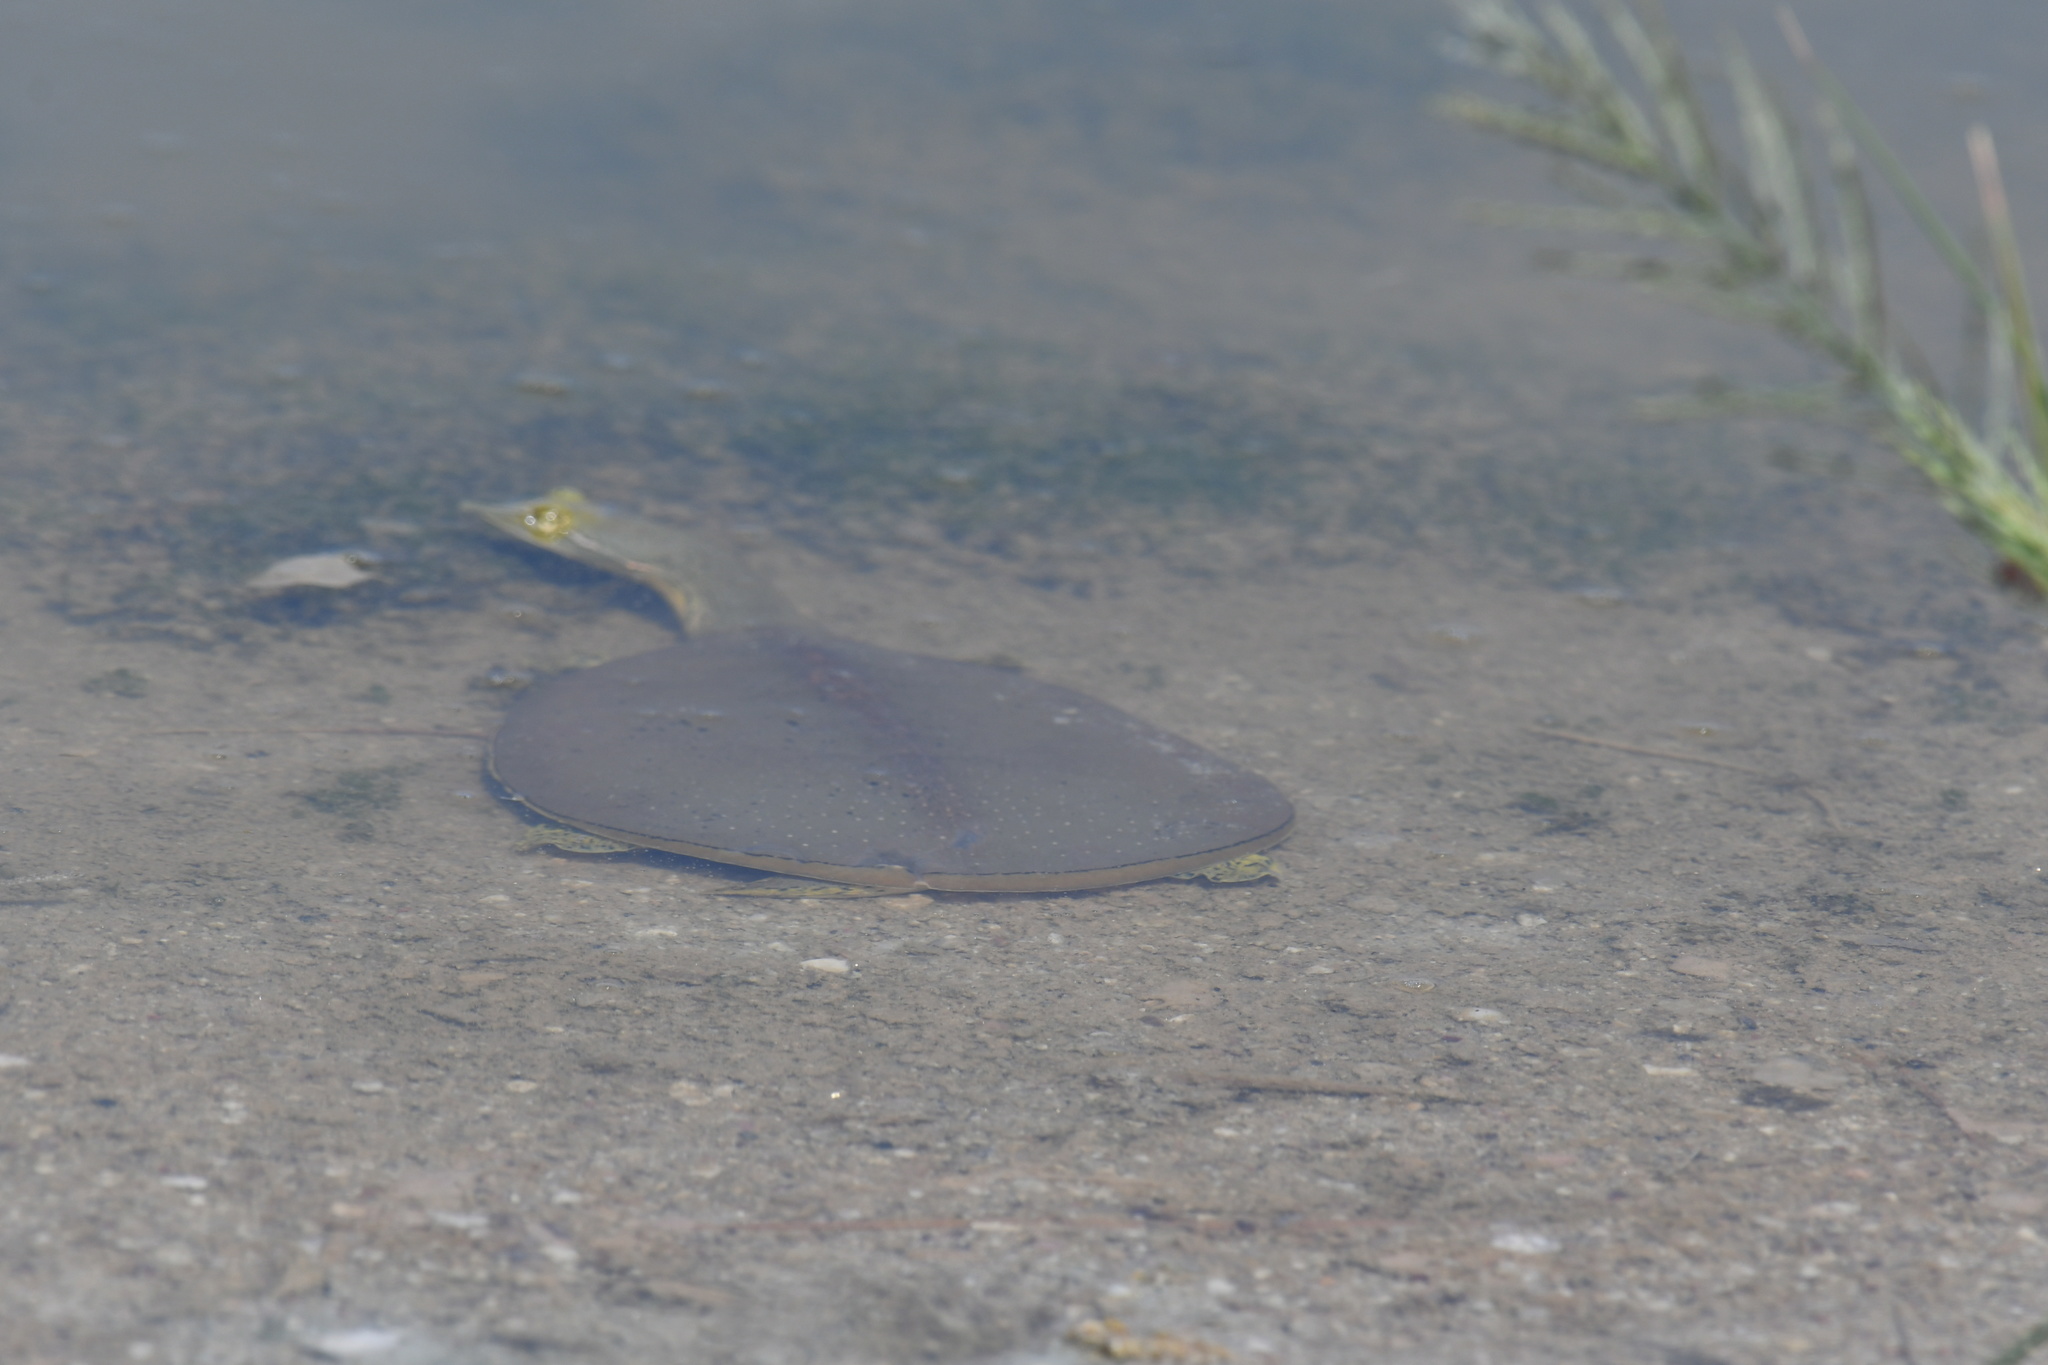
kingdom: Animalia
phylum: Chordata
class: Testudines
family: Trionychidae
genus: Apalone
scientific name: Apalone spinifera
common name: Spiny softshell turtle
